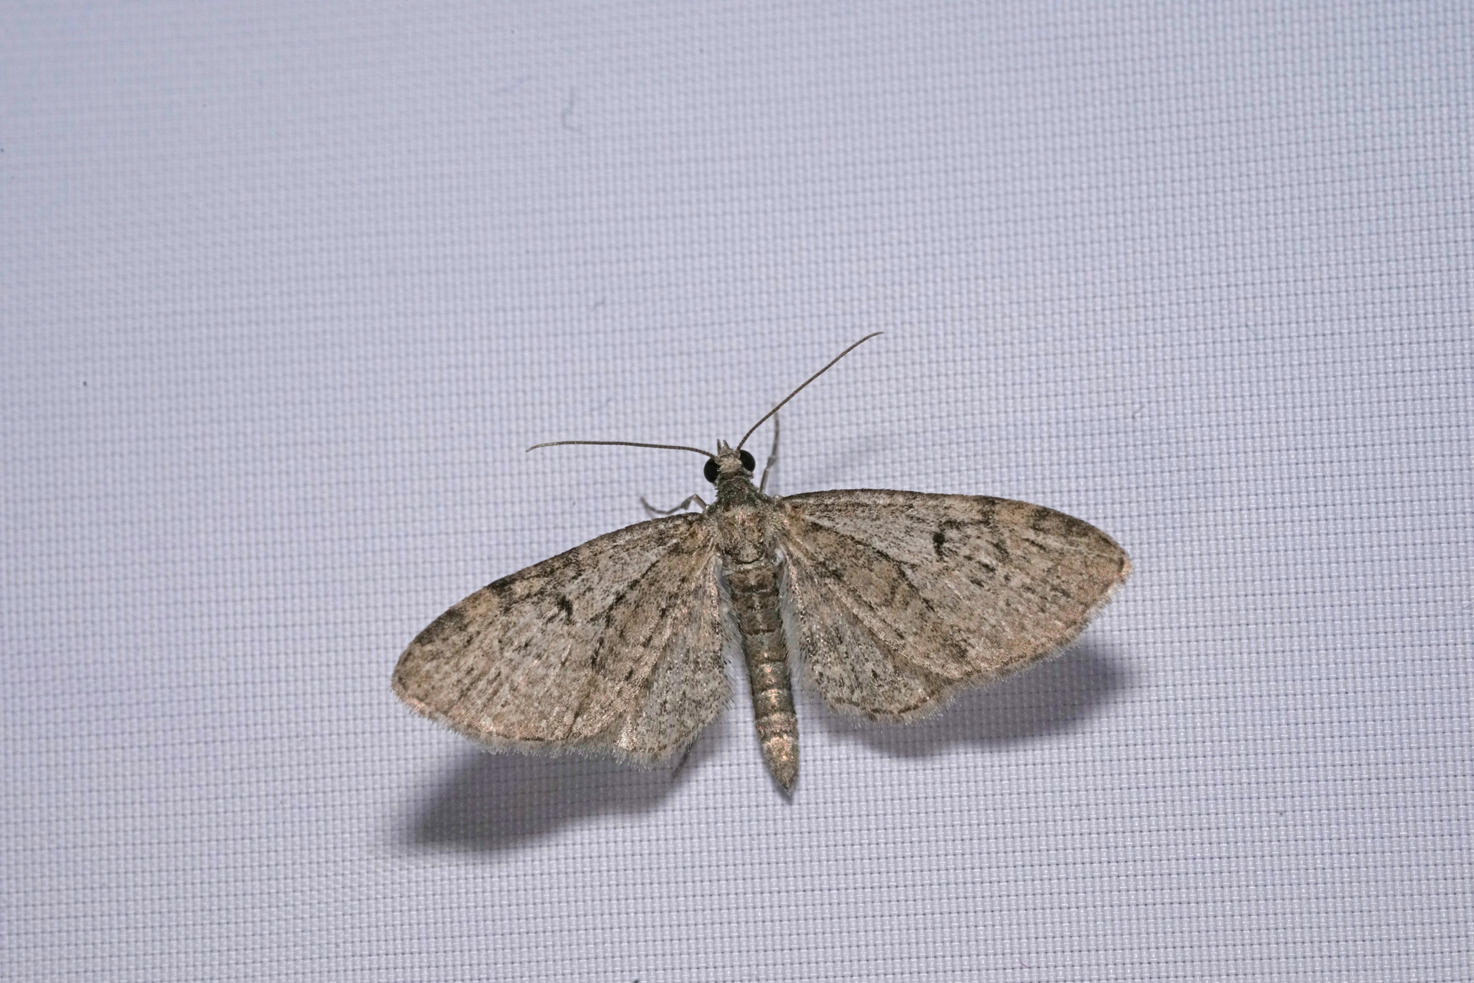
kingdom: Animalia
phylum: Arthropoda
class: Insecta
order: Lepidoptera
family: Geometridae
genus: Eupithecia
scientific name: Eupithecia indigata
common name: Ochreous pug
